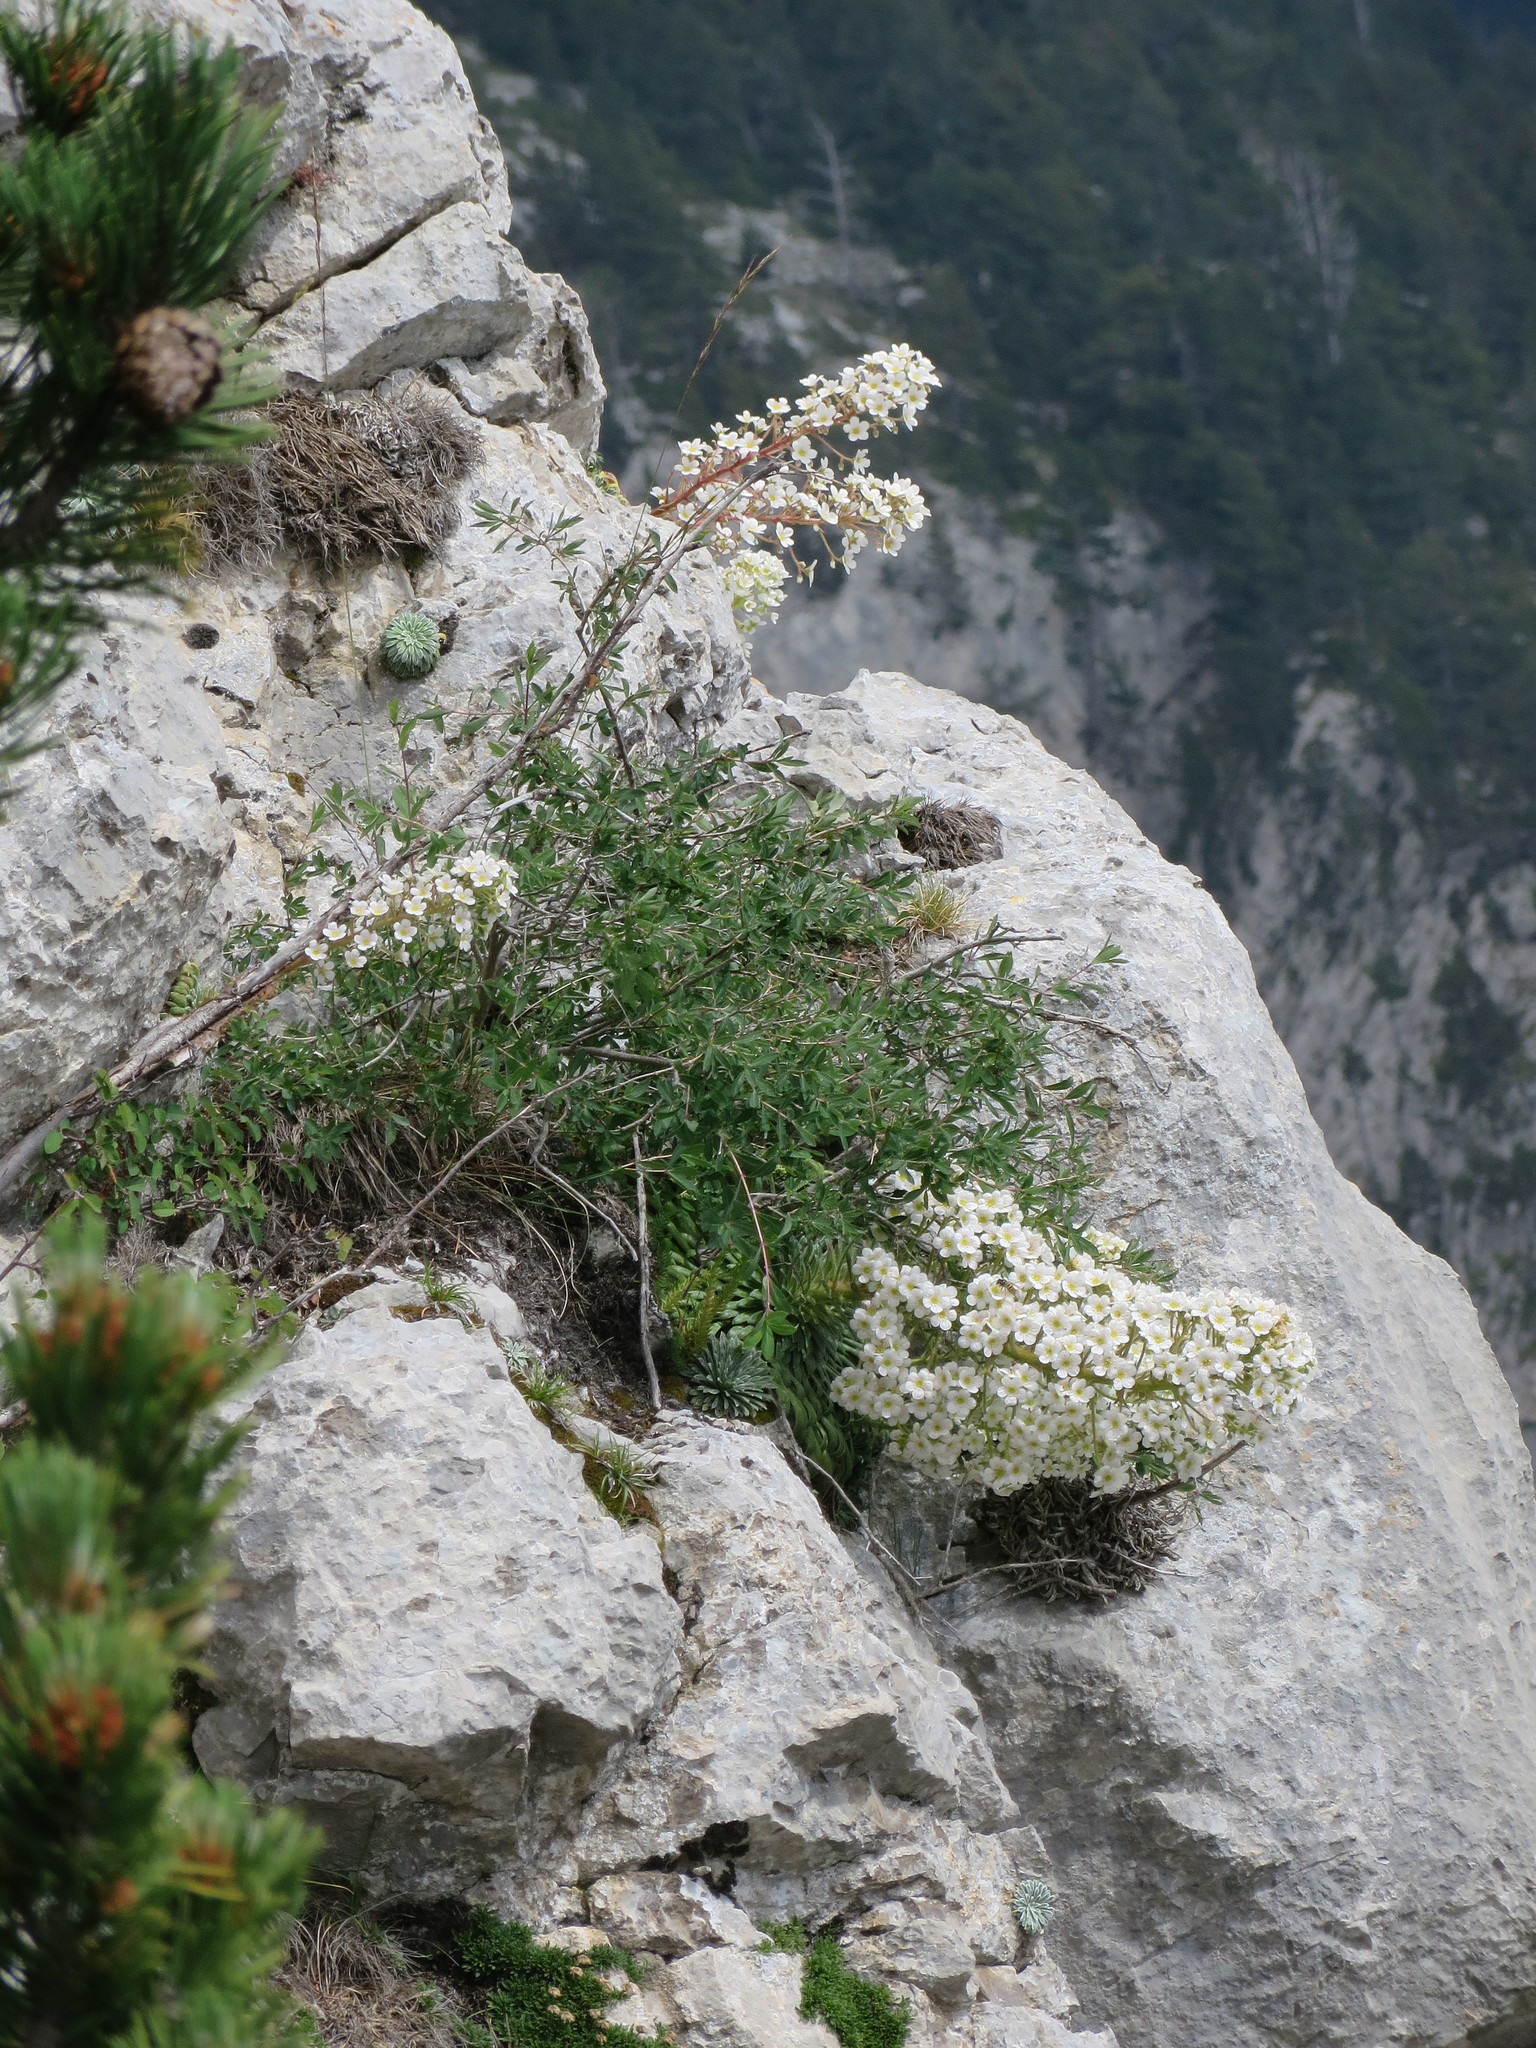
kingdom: Plantae
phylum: Tracheophyta
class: Magnoliopsida
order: Saxifragales
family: Saxifragaceae
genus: Saxifraga
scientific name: Saxifraga longifolia
